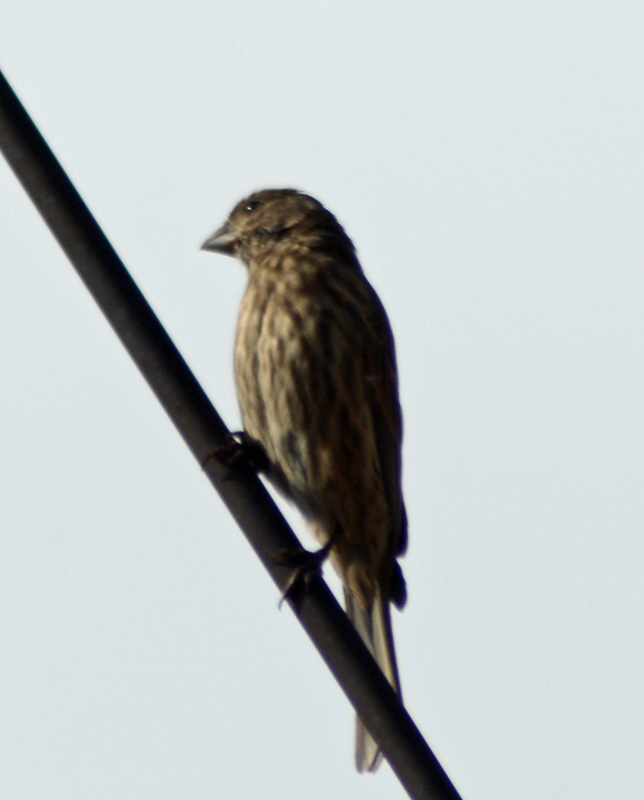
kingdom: Animalia
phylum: Chordata
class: Aves
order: Passeriformes
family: Fringillidae
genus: Haemorhous
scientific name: Haemorhous mexicanus
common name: House finch
